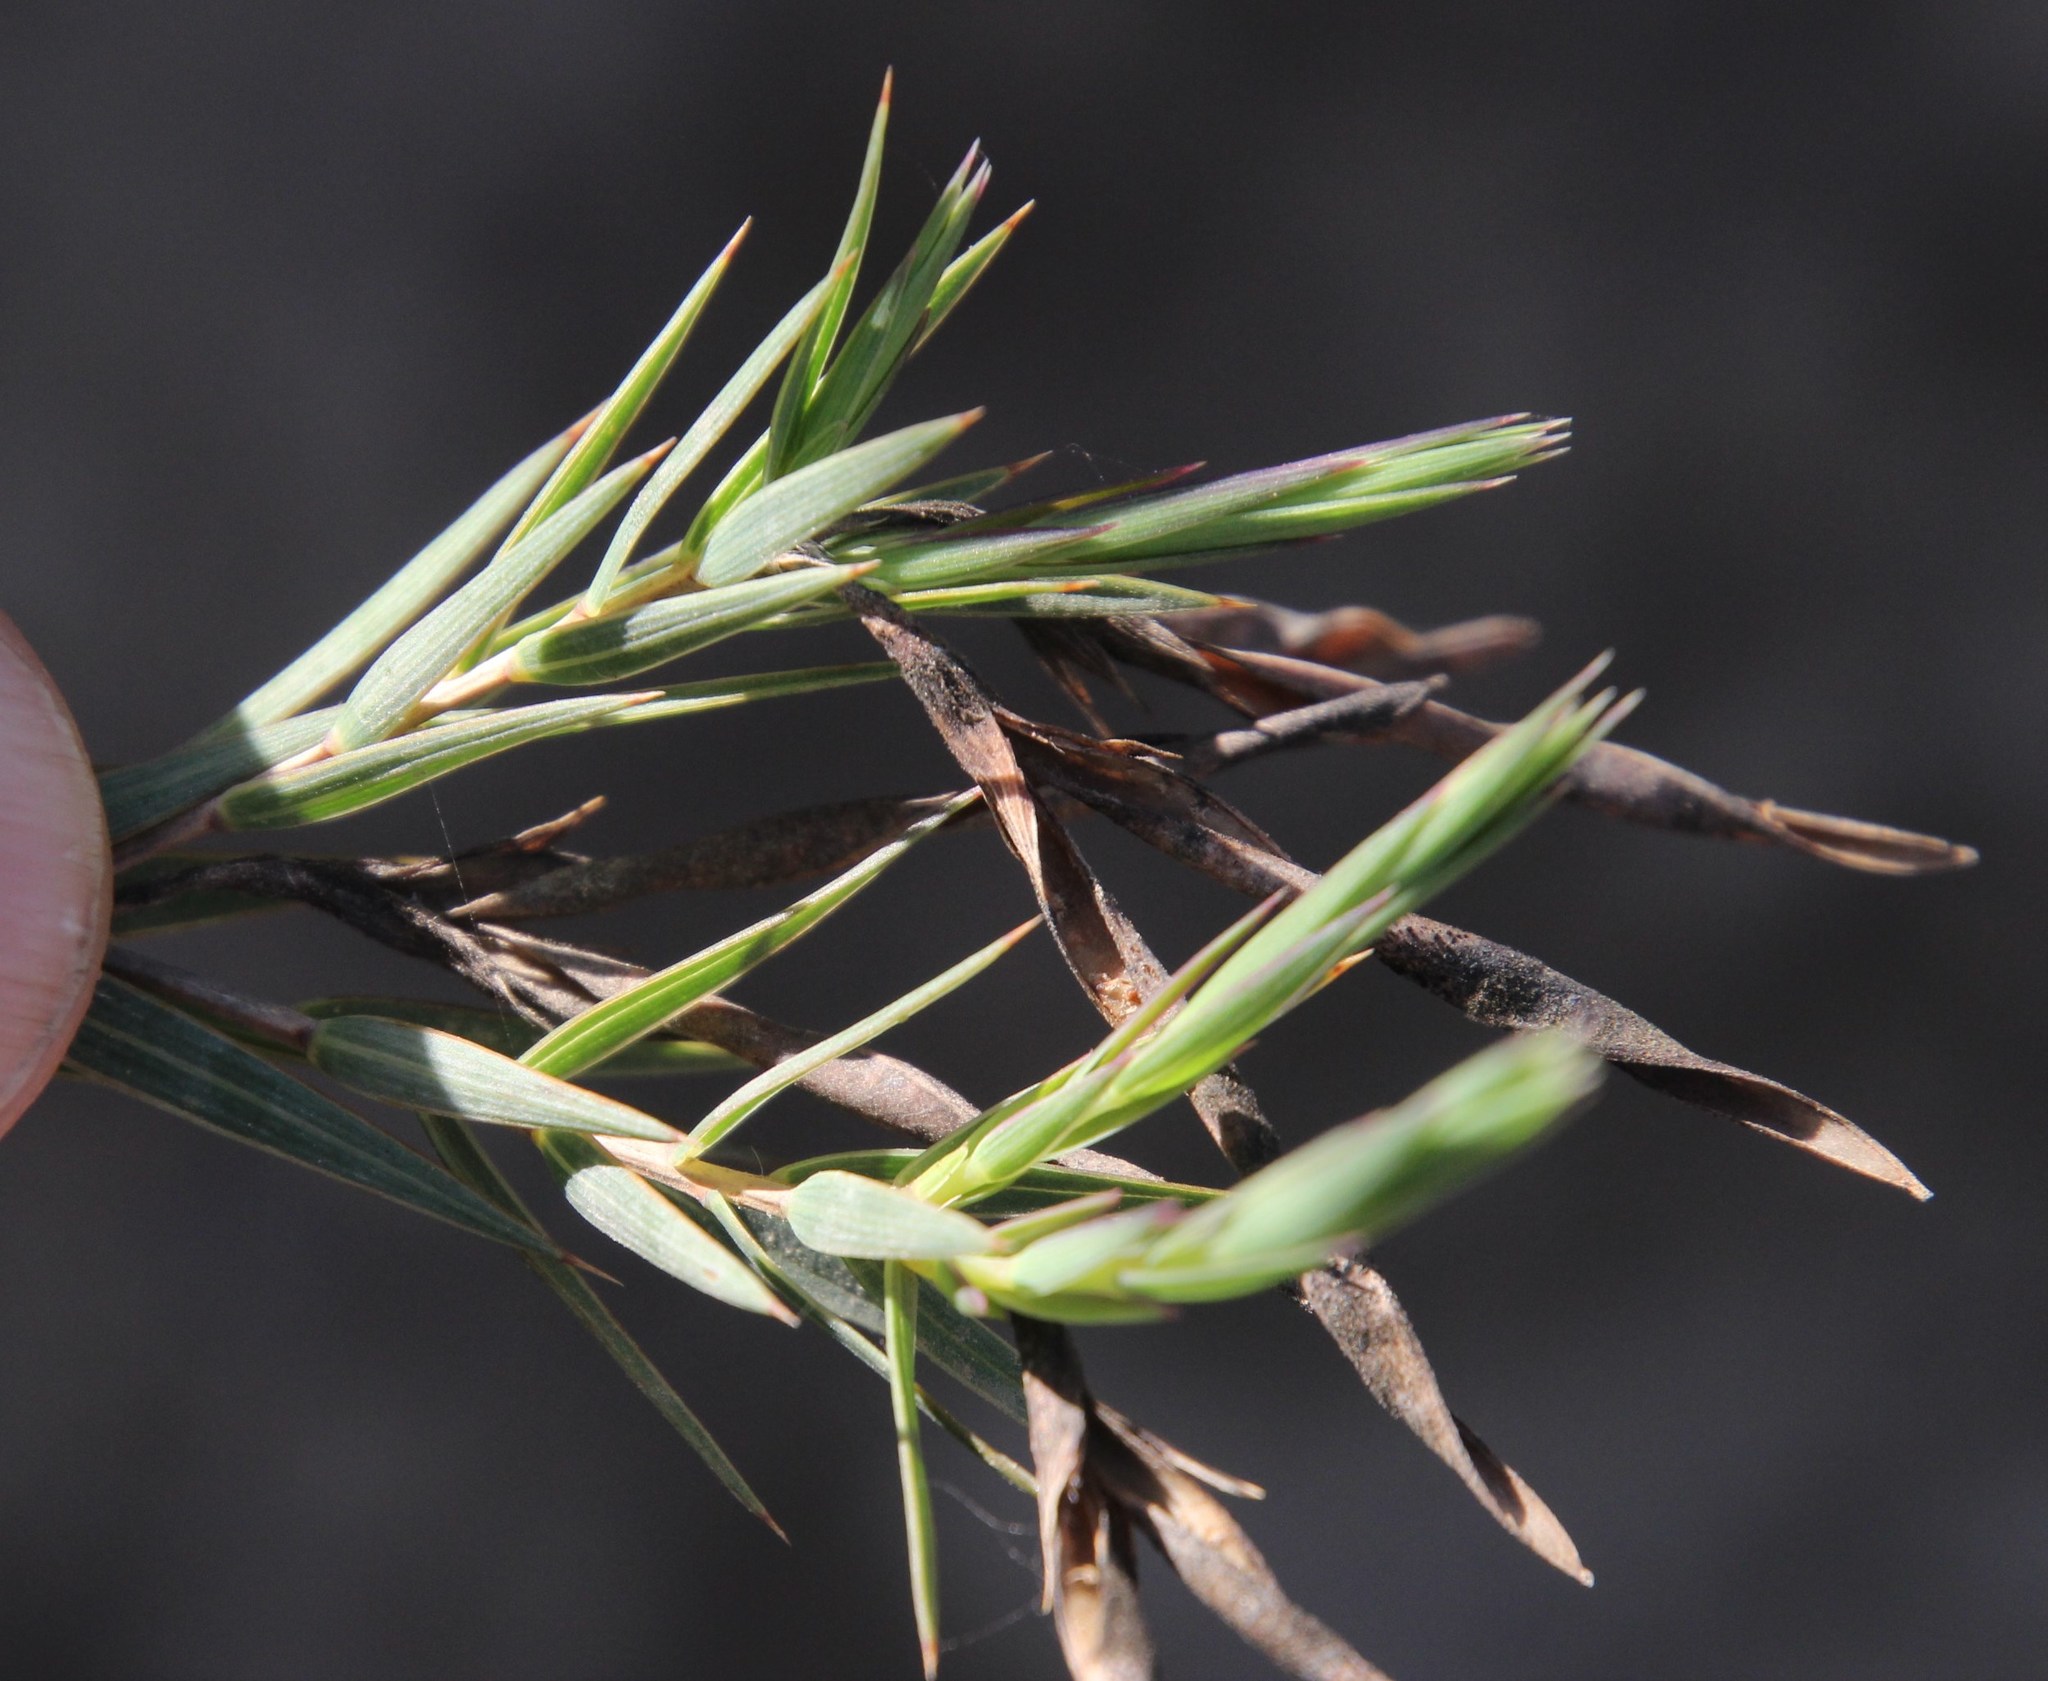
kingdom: Plantae
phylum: Tracheophyta
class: Magnoliopsida
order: Fabales
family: Fabaceae
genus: Aspalathus
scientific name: Aspalathus angustifolia
